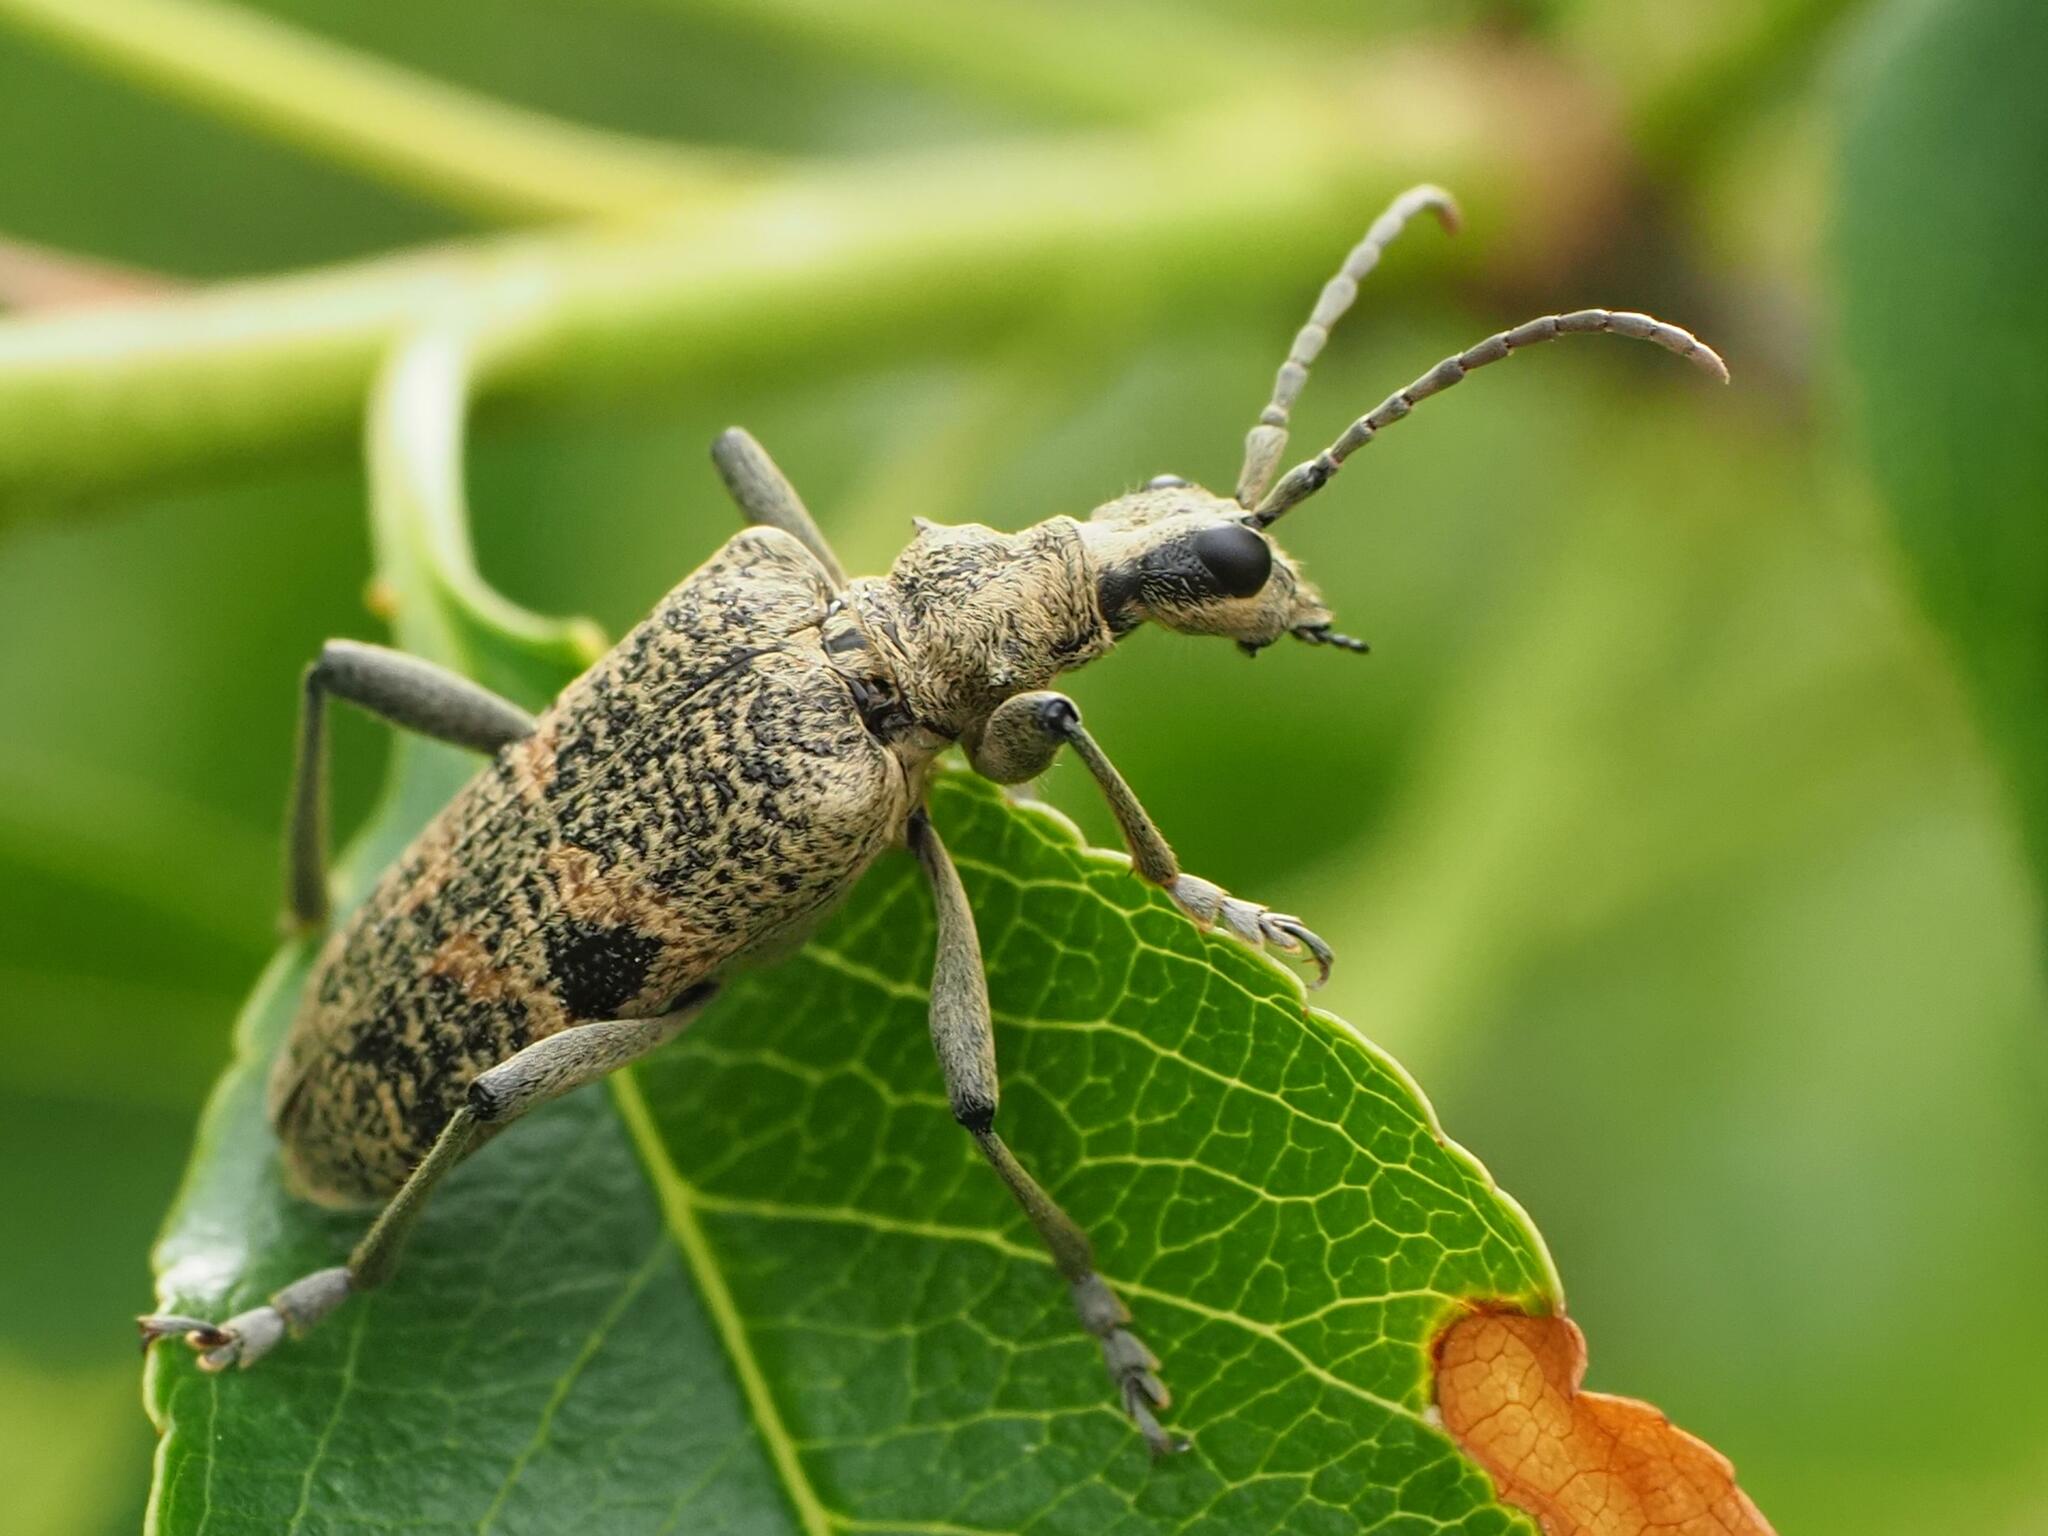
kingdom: Animalia
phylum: Arthropoda
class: Insecta
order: Coleoptera
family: Cerambycidae
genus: Rhagium
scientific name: Rhagium mordax
